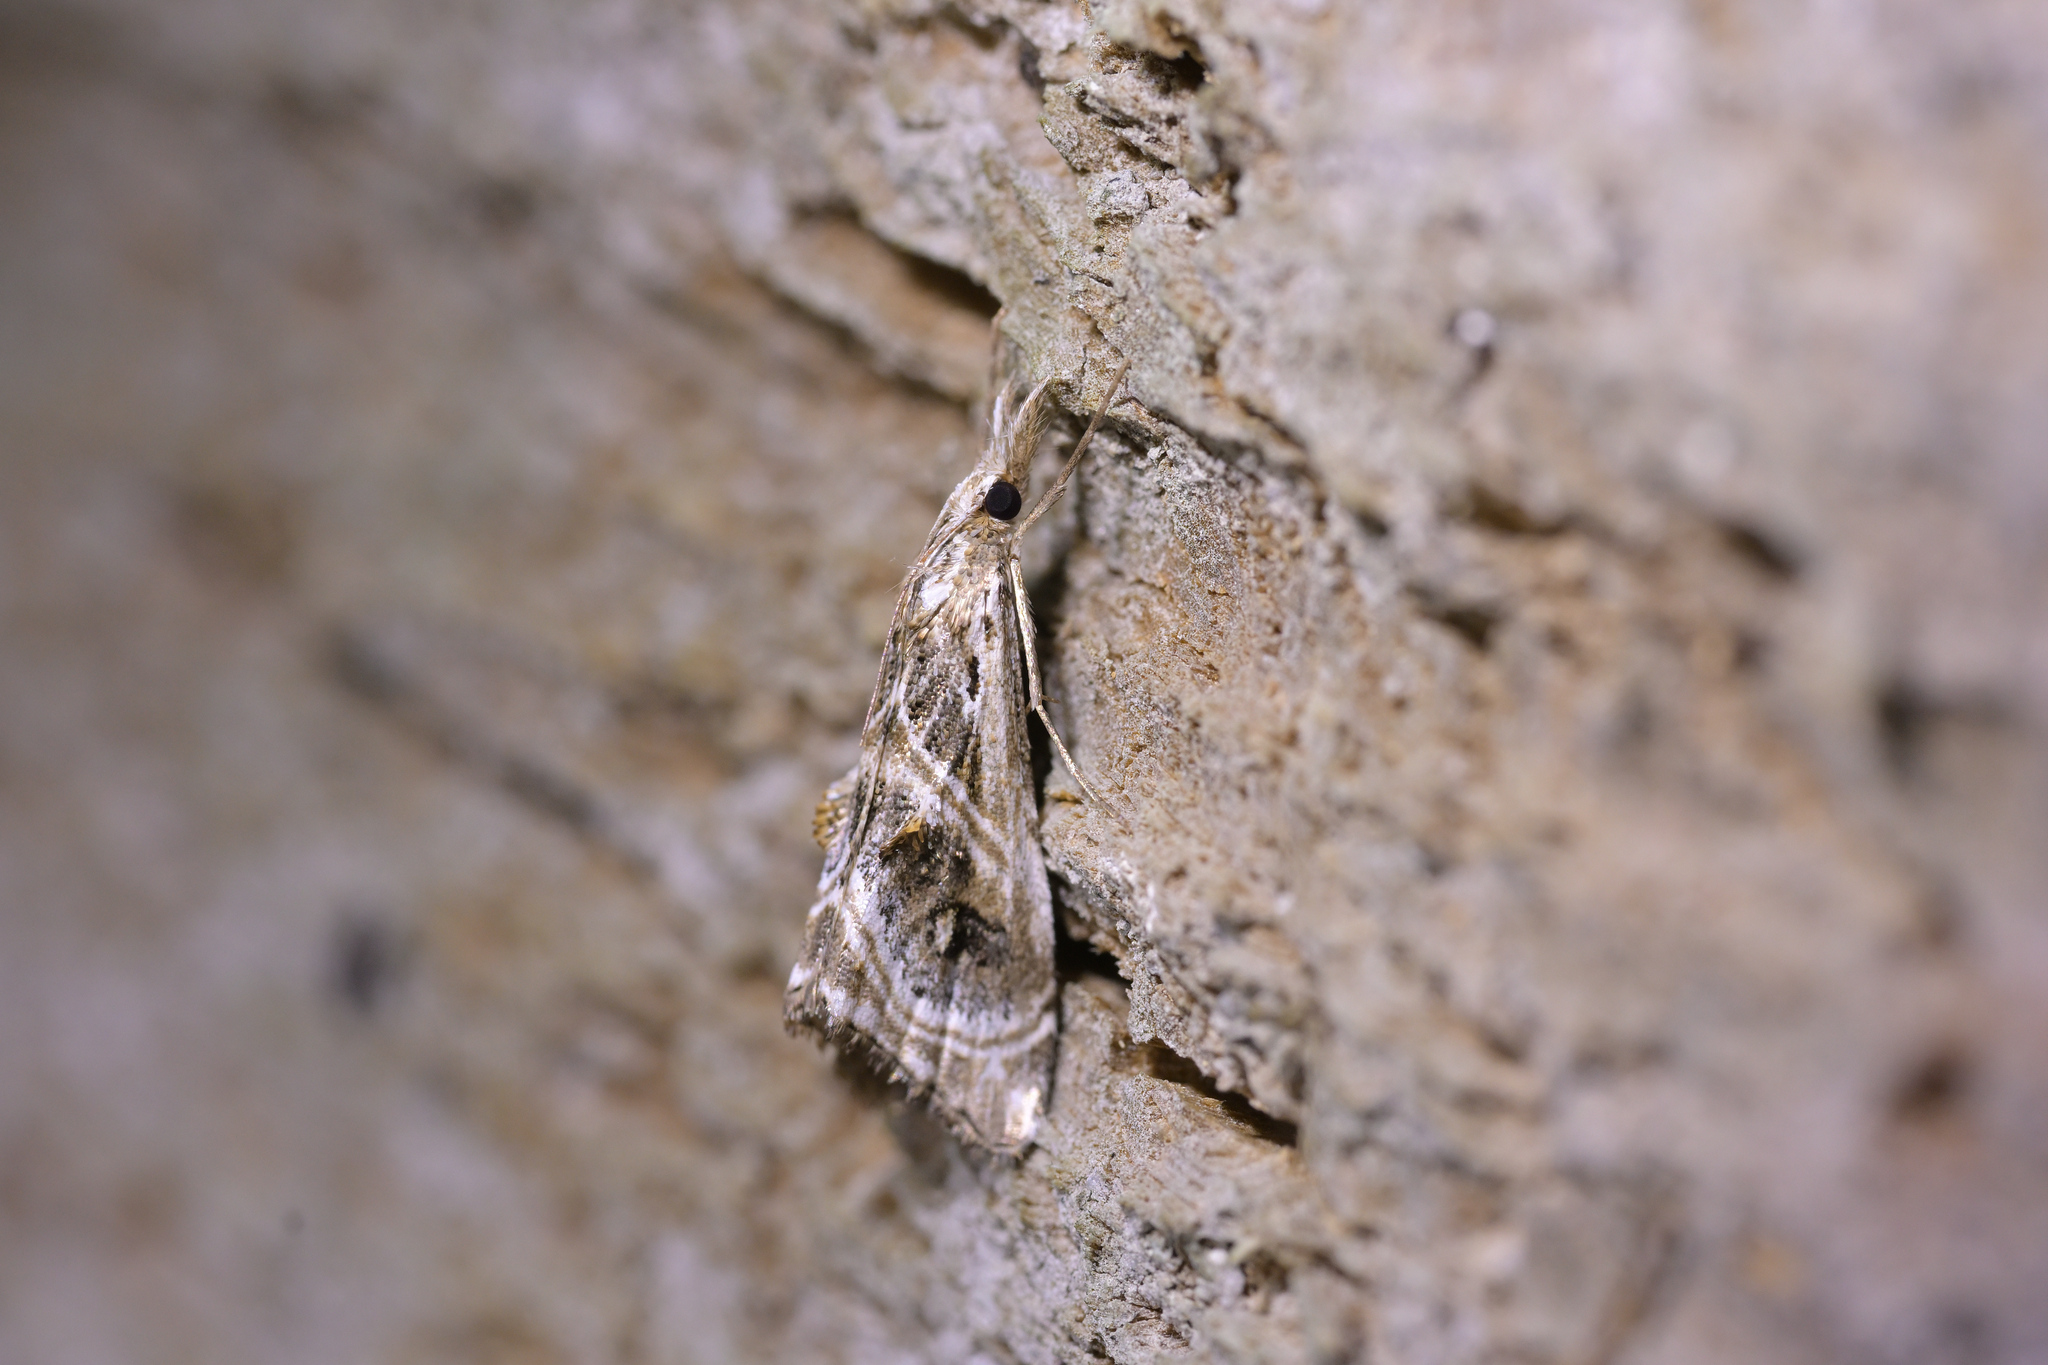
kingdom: Animalia
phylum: Arthropoda
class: Insecta
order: Lepidoptera
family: Crambidae
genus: Gadira
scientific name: Gadira acerella
